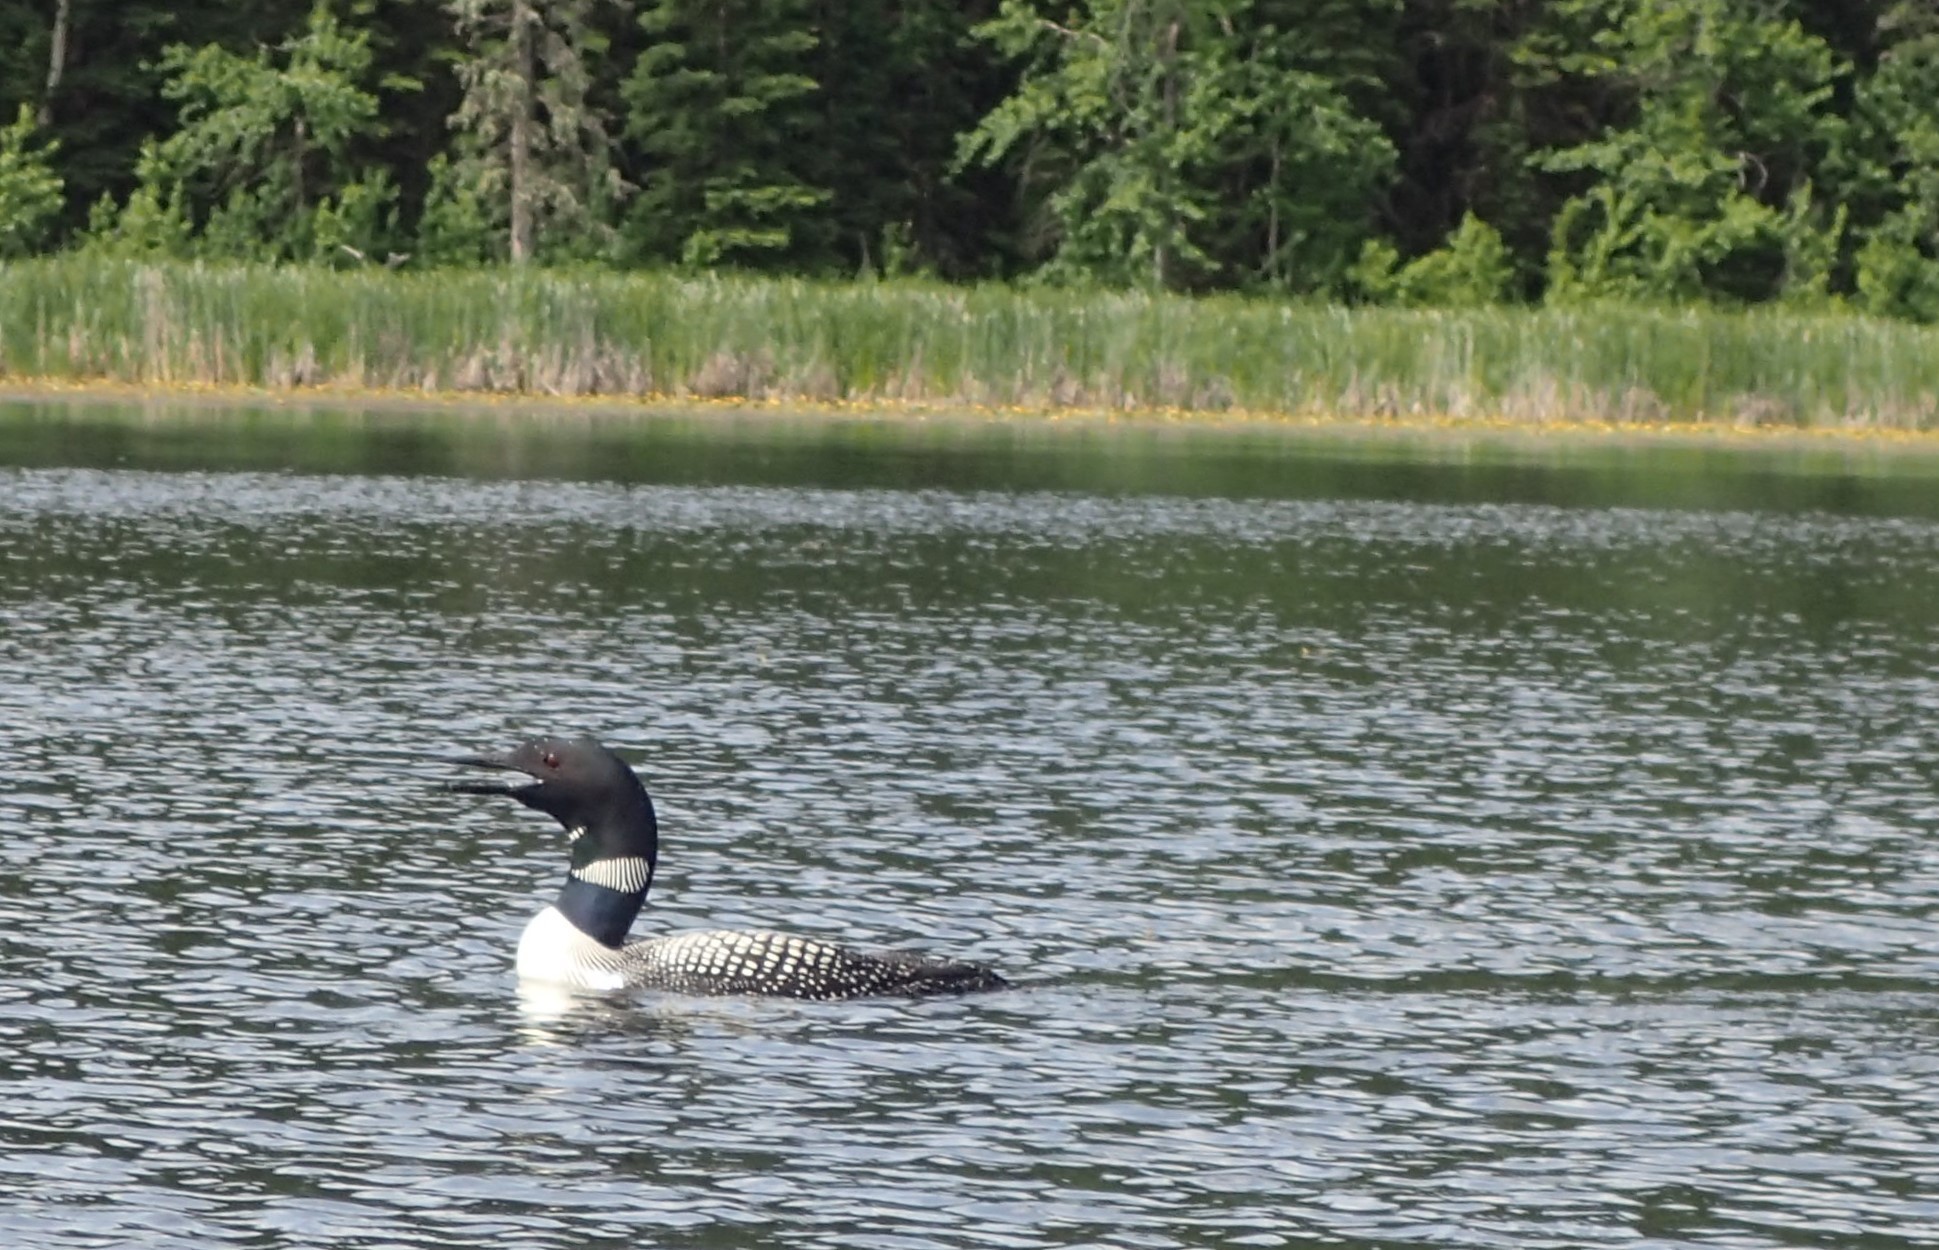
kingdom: Animalia
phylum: Chordata
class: Aves
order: Gaviiformes
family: Gaviidae
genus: Gavia
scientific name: Gavia immer
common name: Common loon
